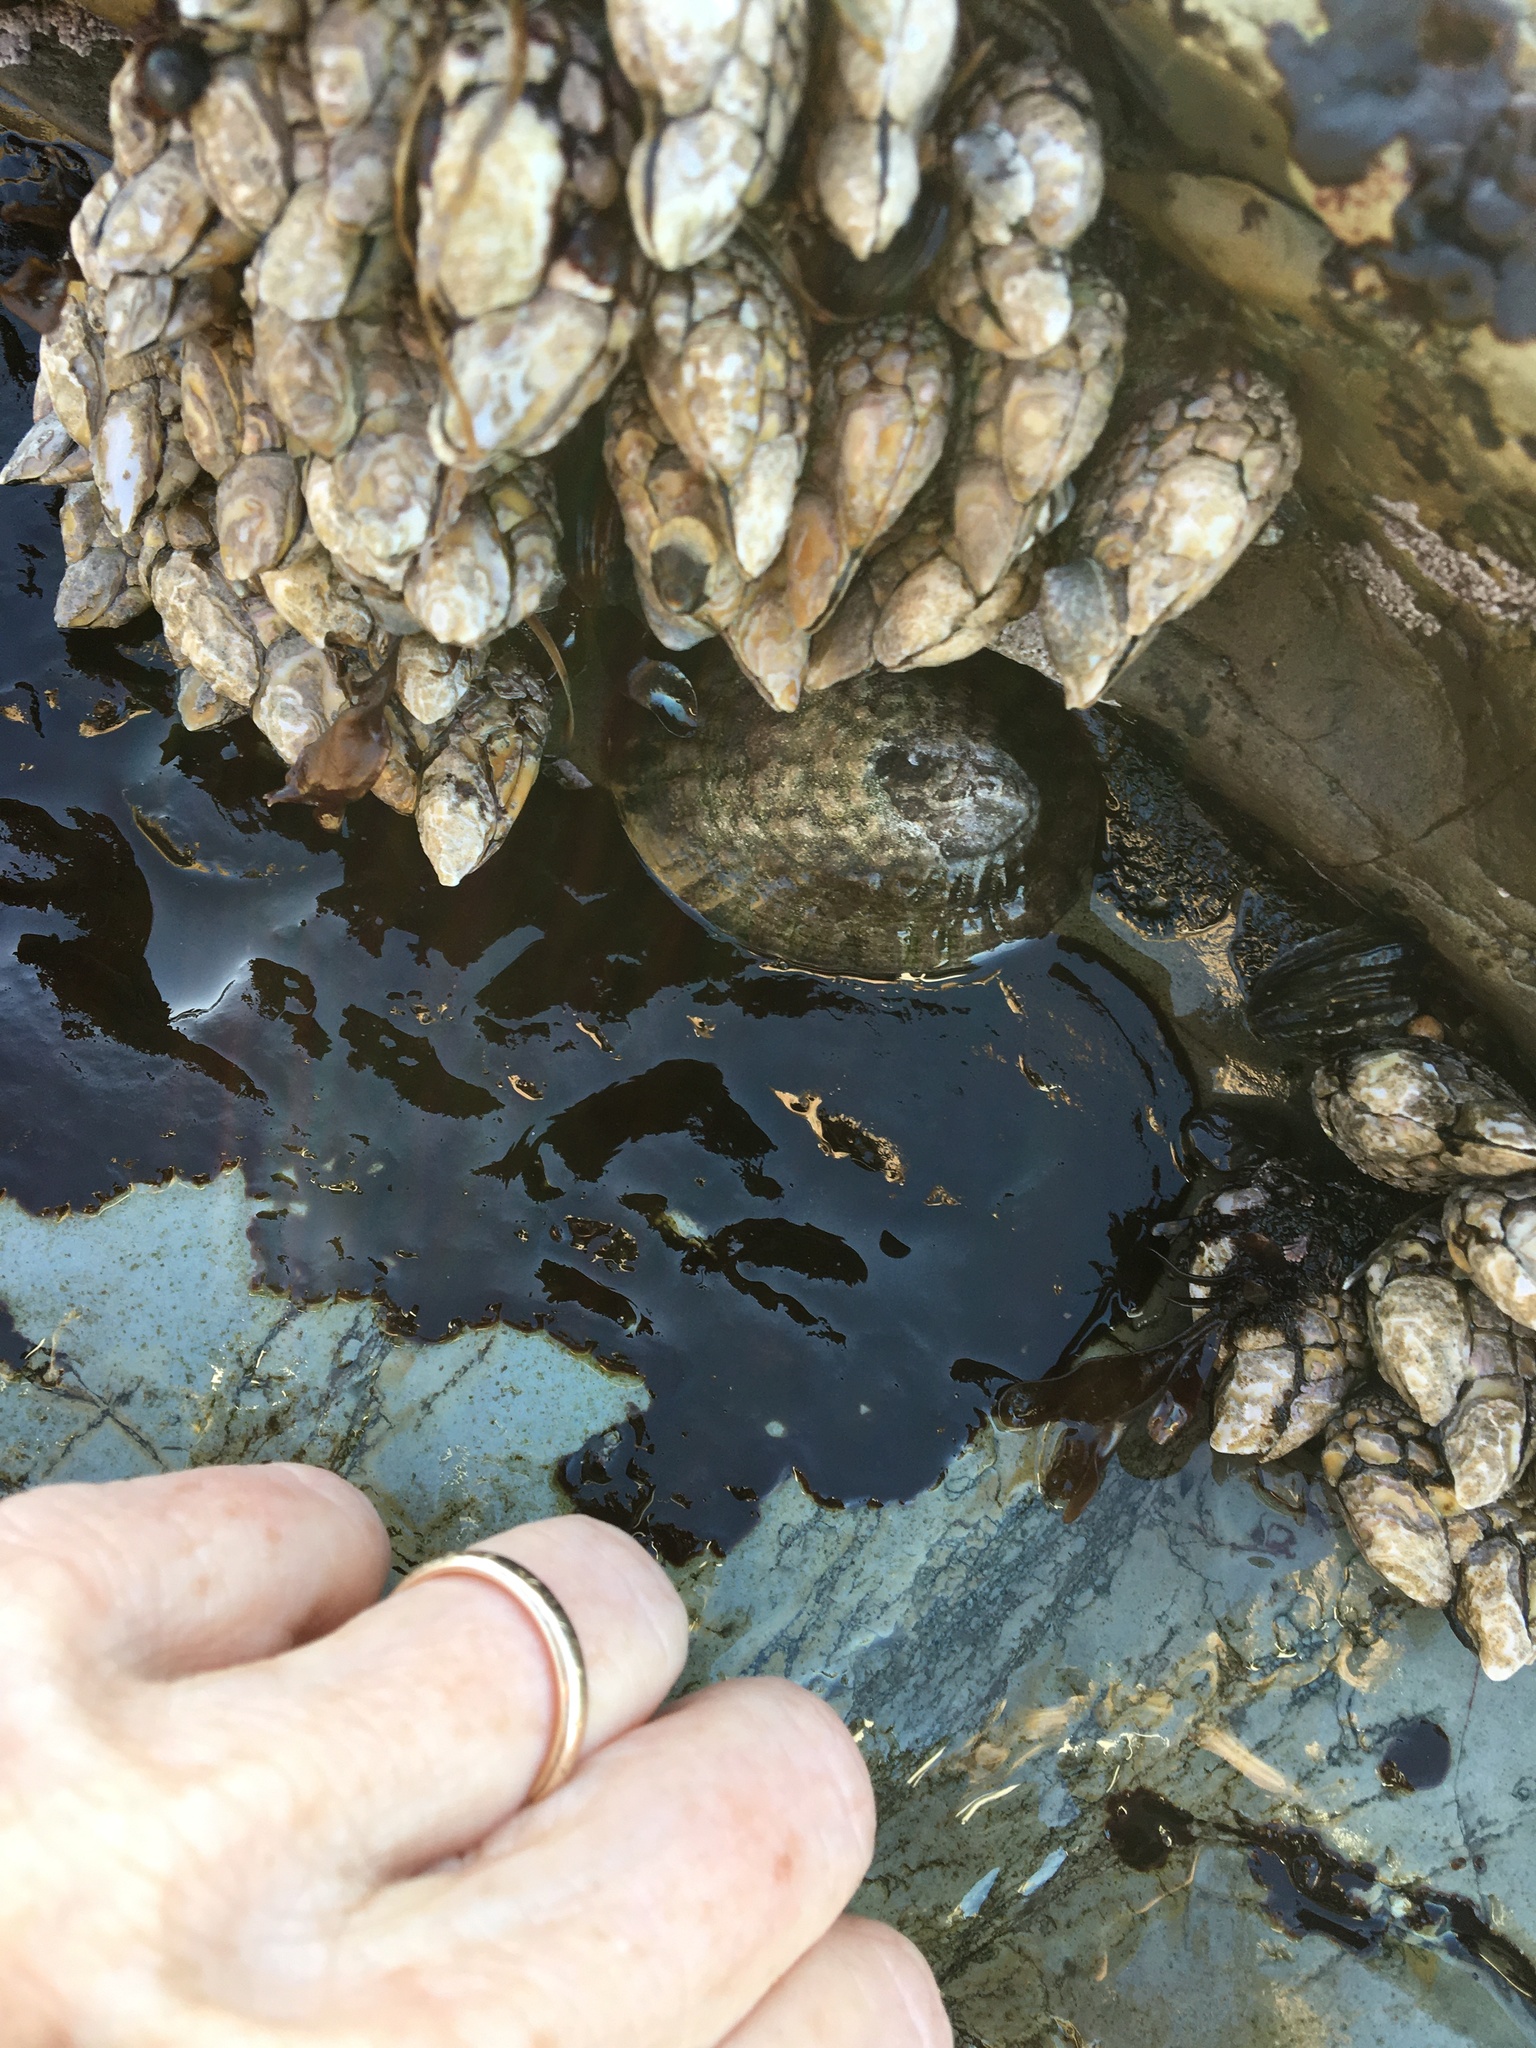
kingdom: Animalia
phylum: Arthropoda
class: Maxillopoda
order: Pedunculata
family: Pollicipedidae
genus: Pollicipes
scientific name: Pollicipes polymerus
